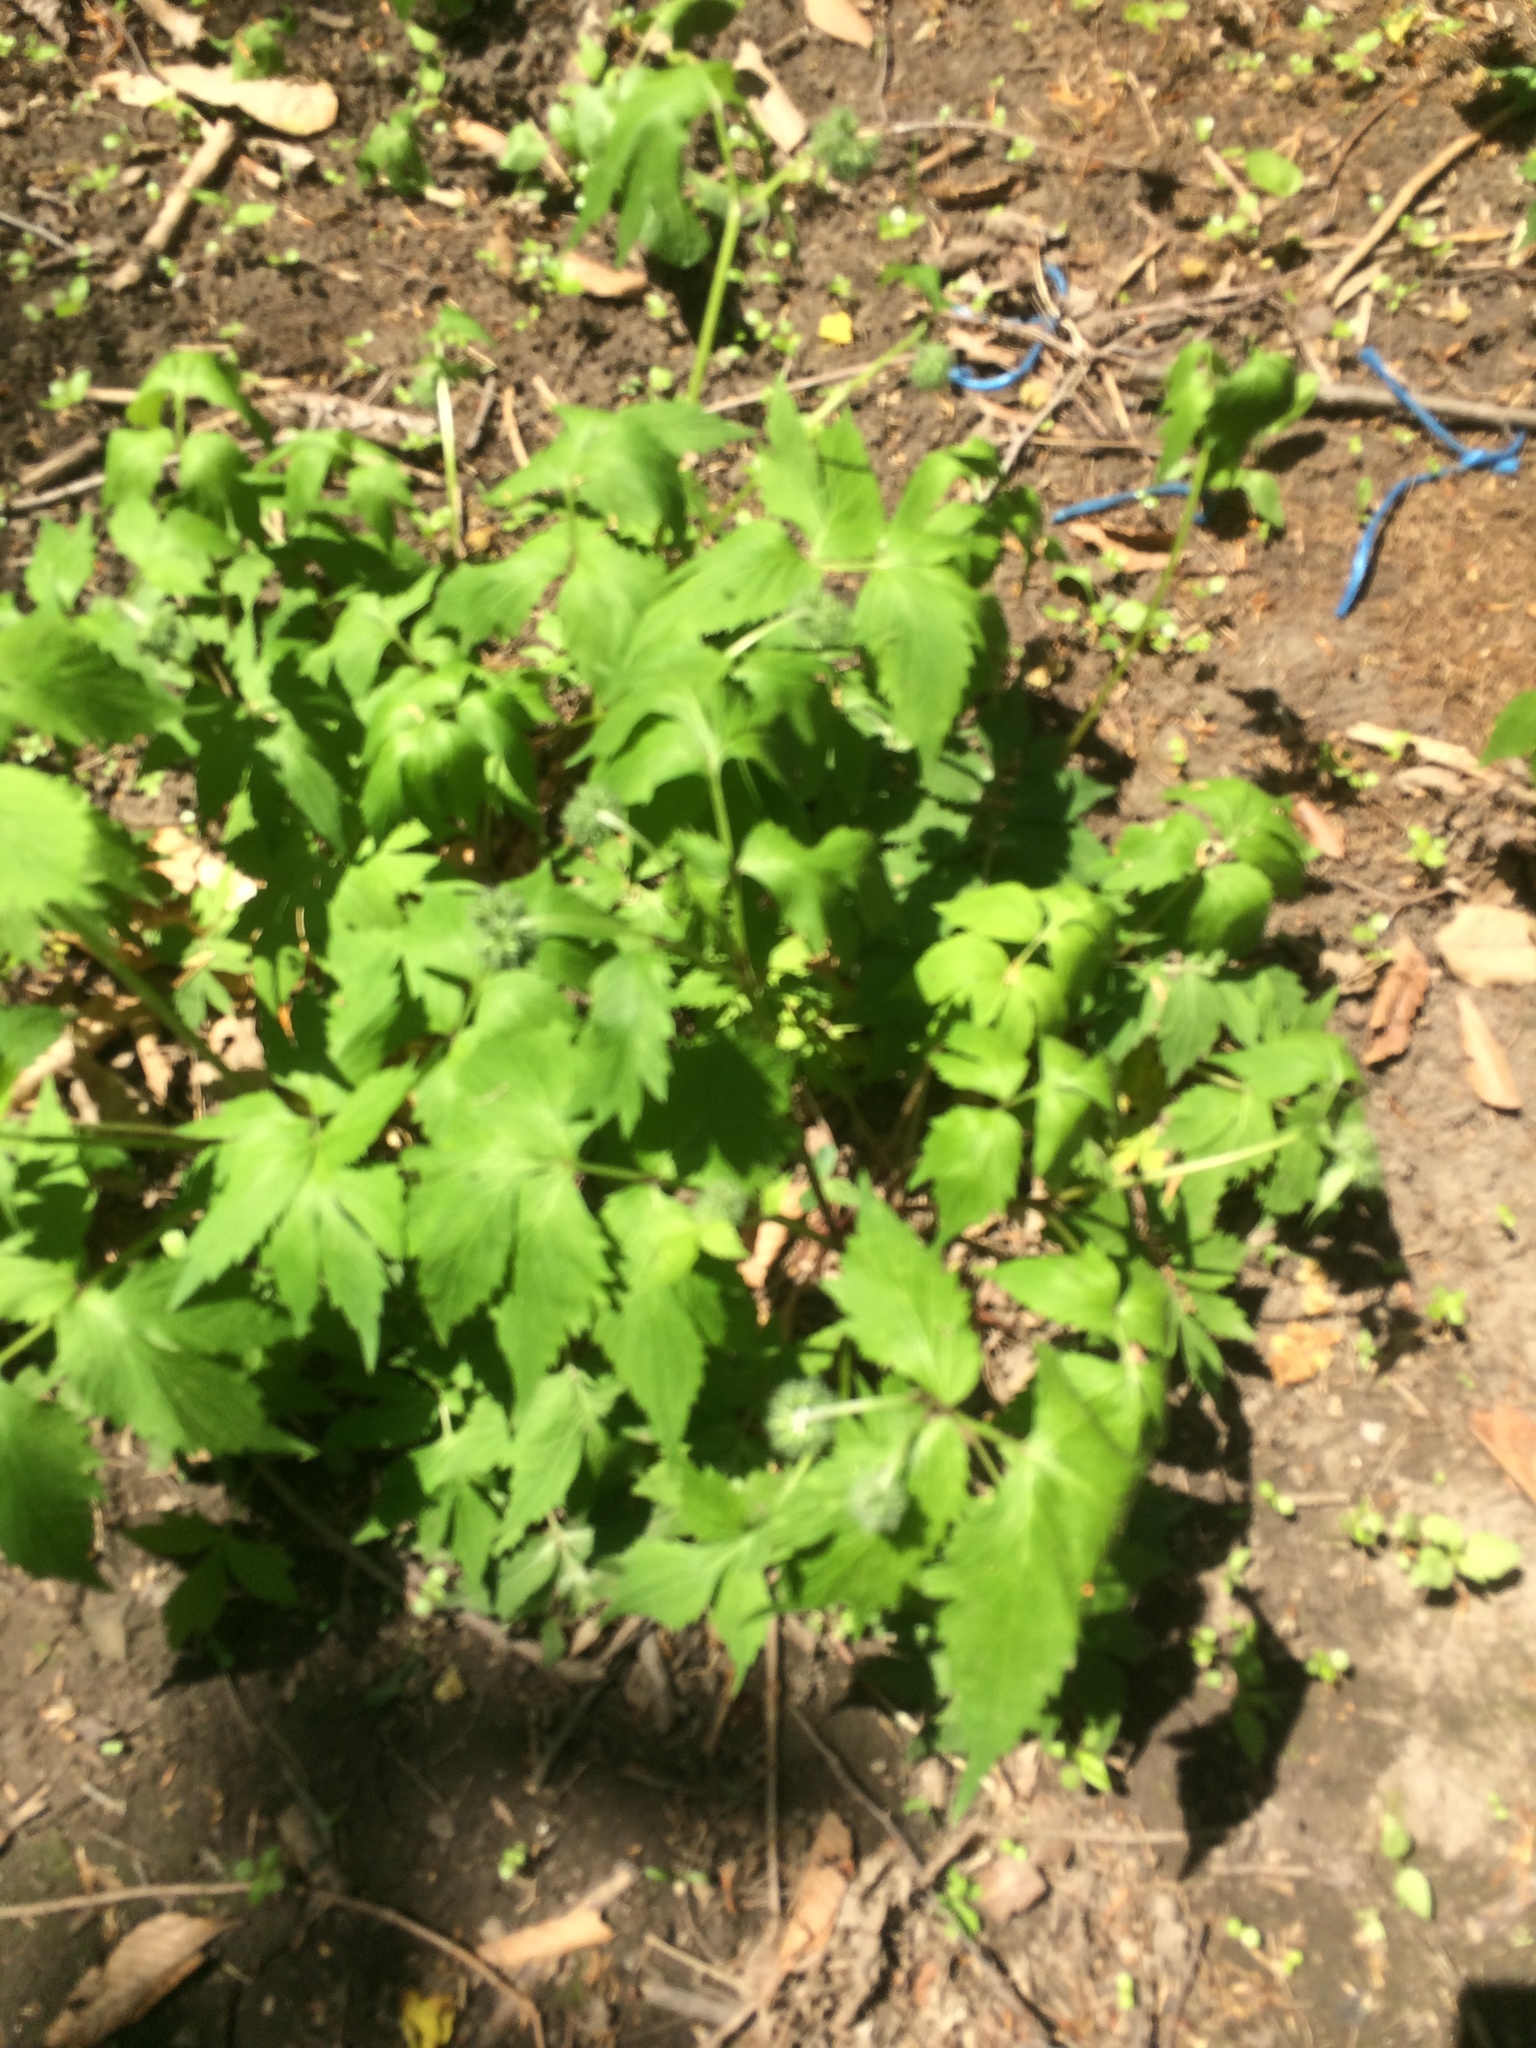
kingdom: Plantae
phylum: Tracheophyta
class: Magnoliopsida
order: Boraginales
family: Hydrophyllaceae
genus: Hydrophyllum
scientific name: Hydrophyllum virginianum
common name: Virginia waterleaf
